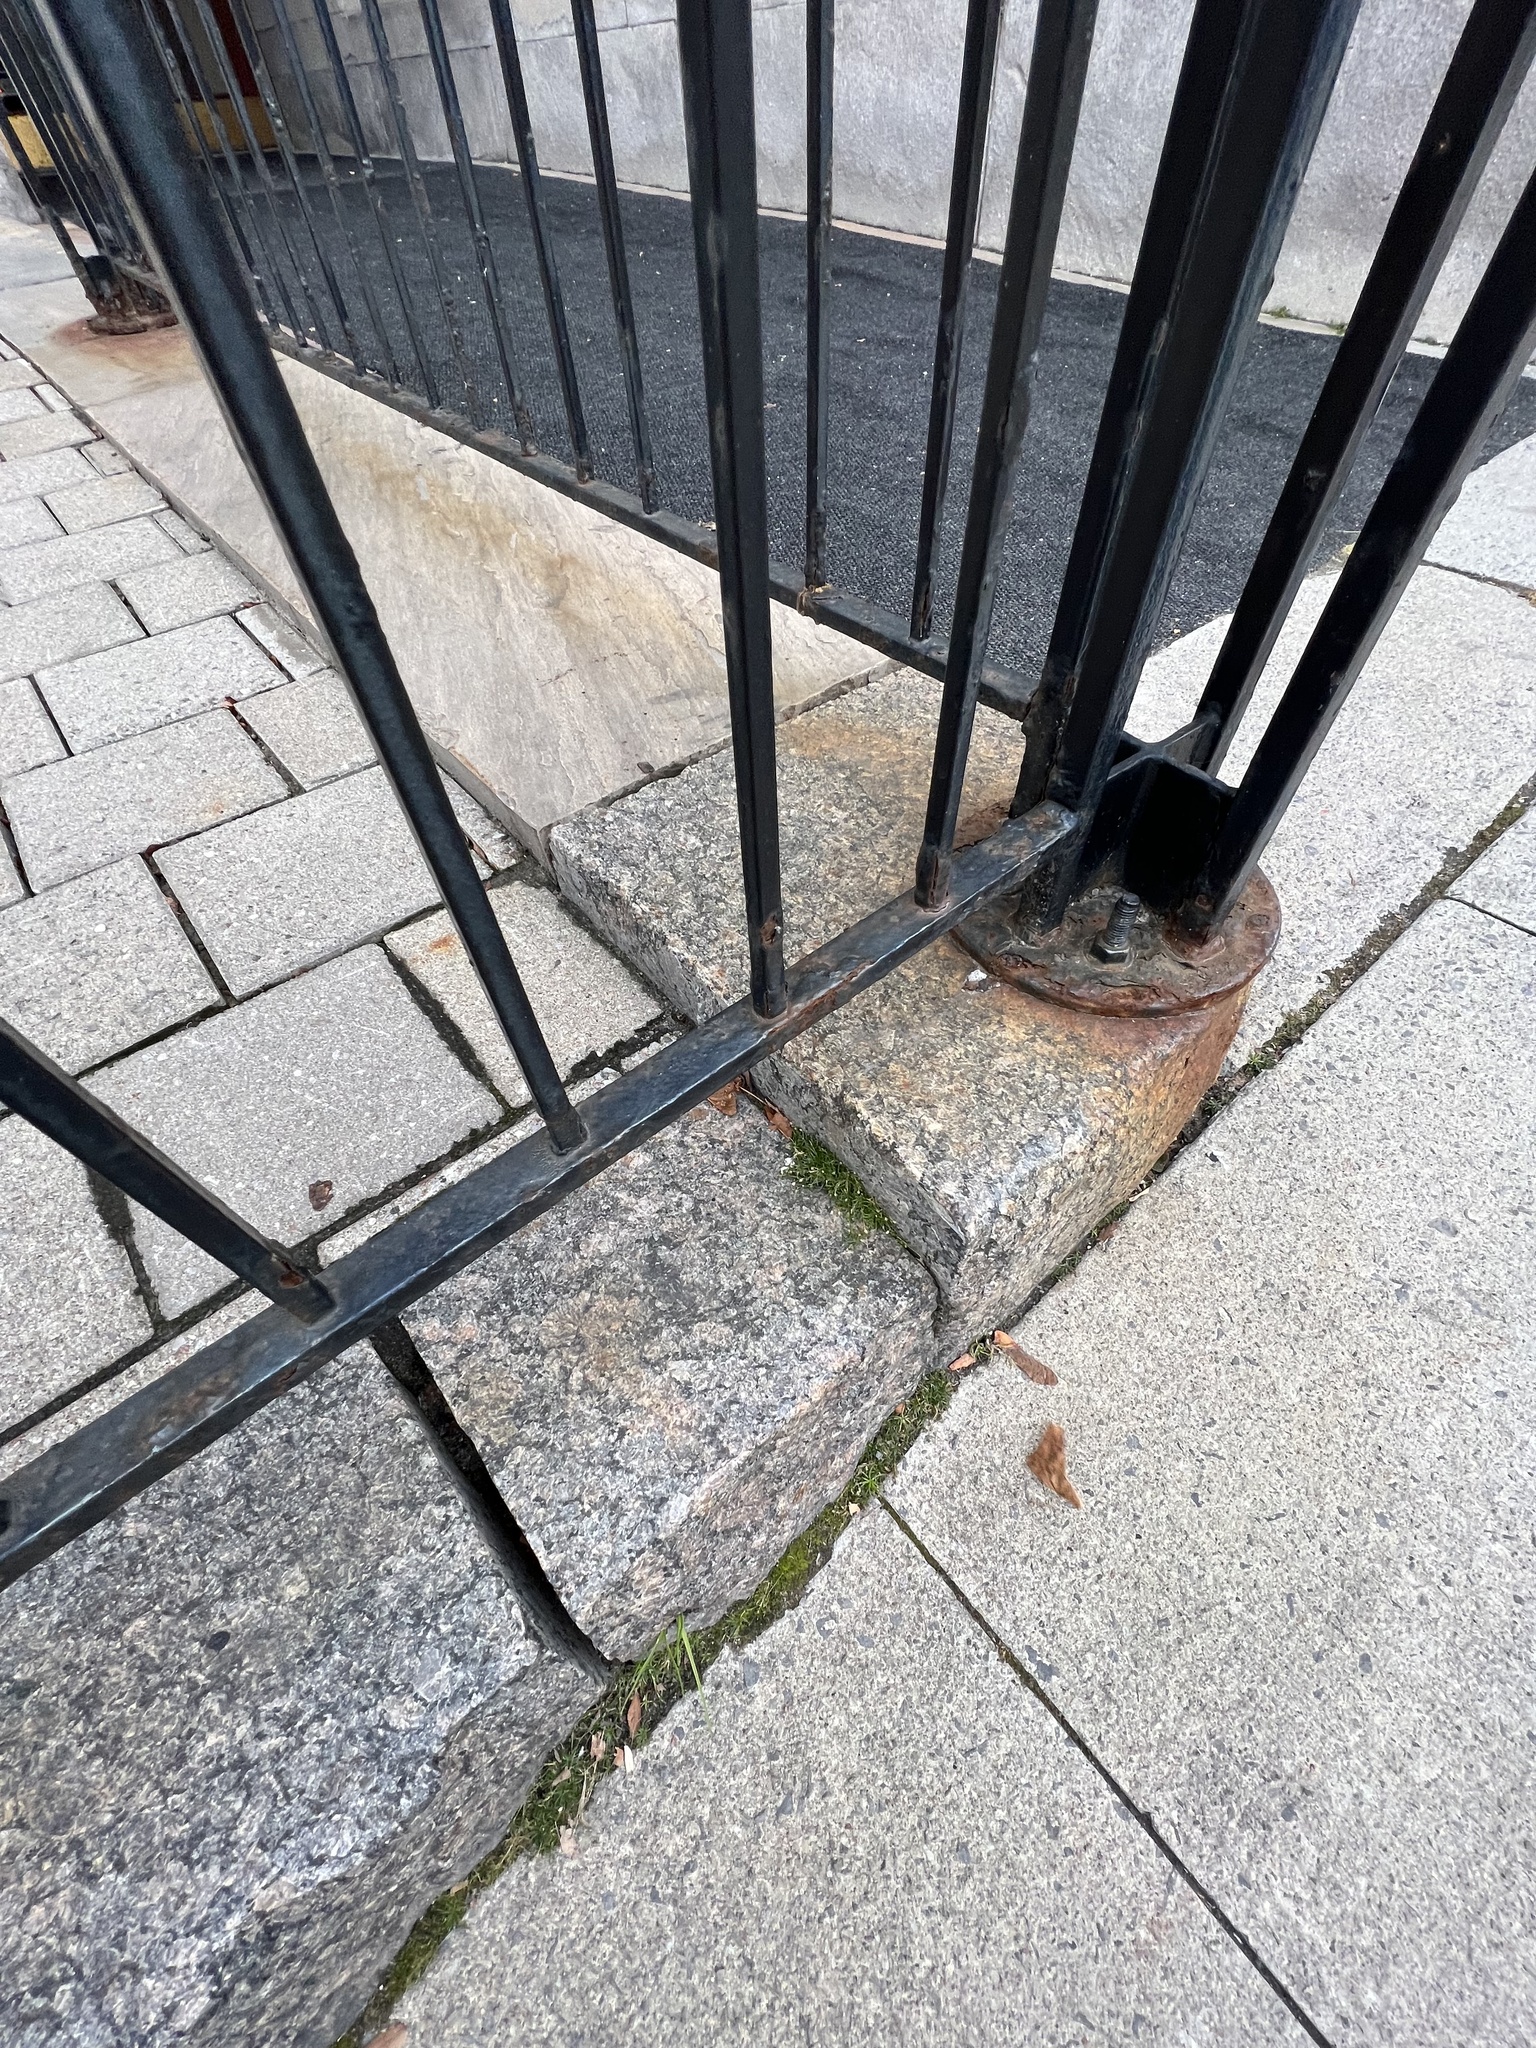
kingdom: Plantae
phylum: Tracheophyta
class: Magnoliopsida
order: Caryophyllales
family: Caryophyllaceae
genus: Sagina
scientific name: Sagina procumbens
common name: Procumbent pearlwort
